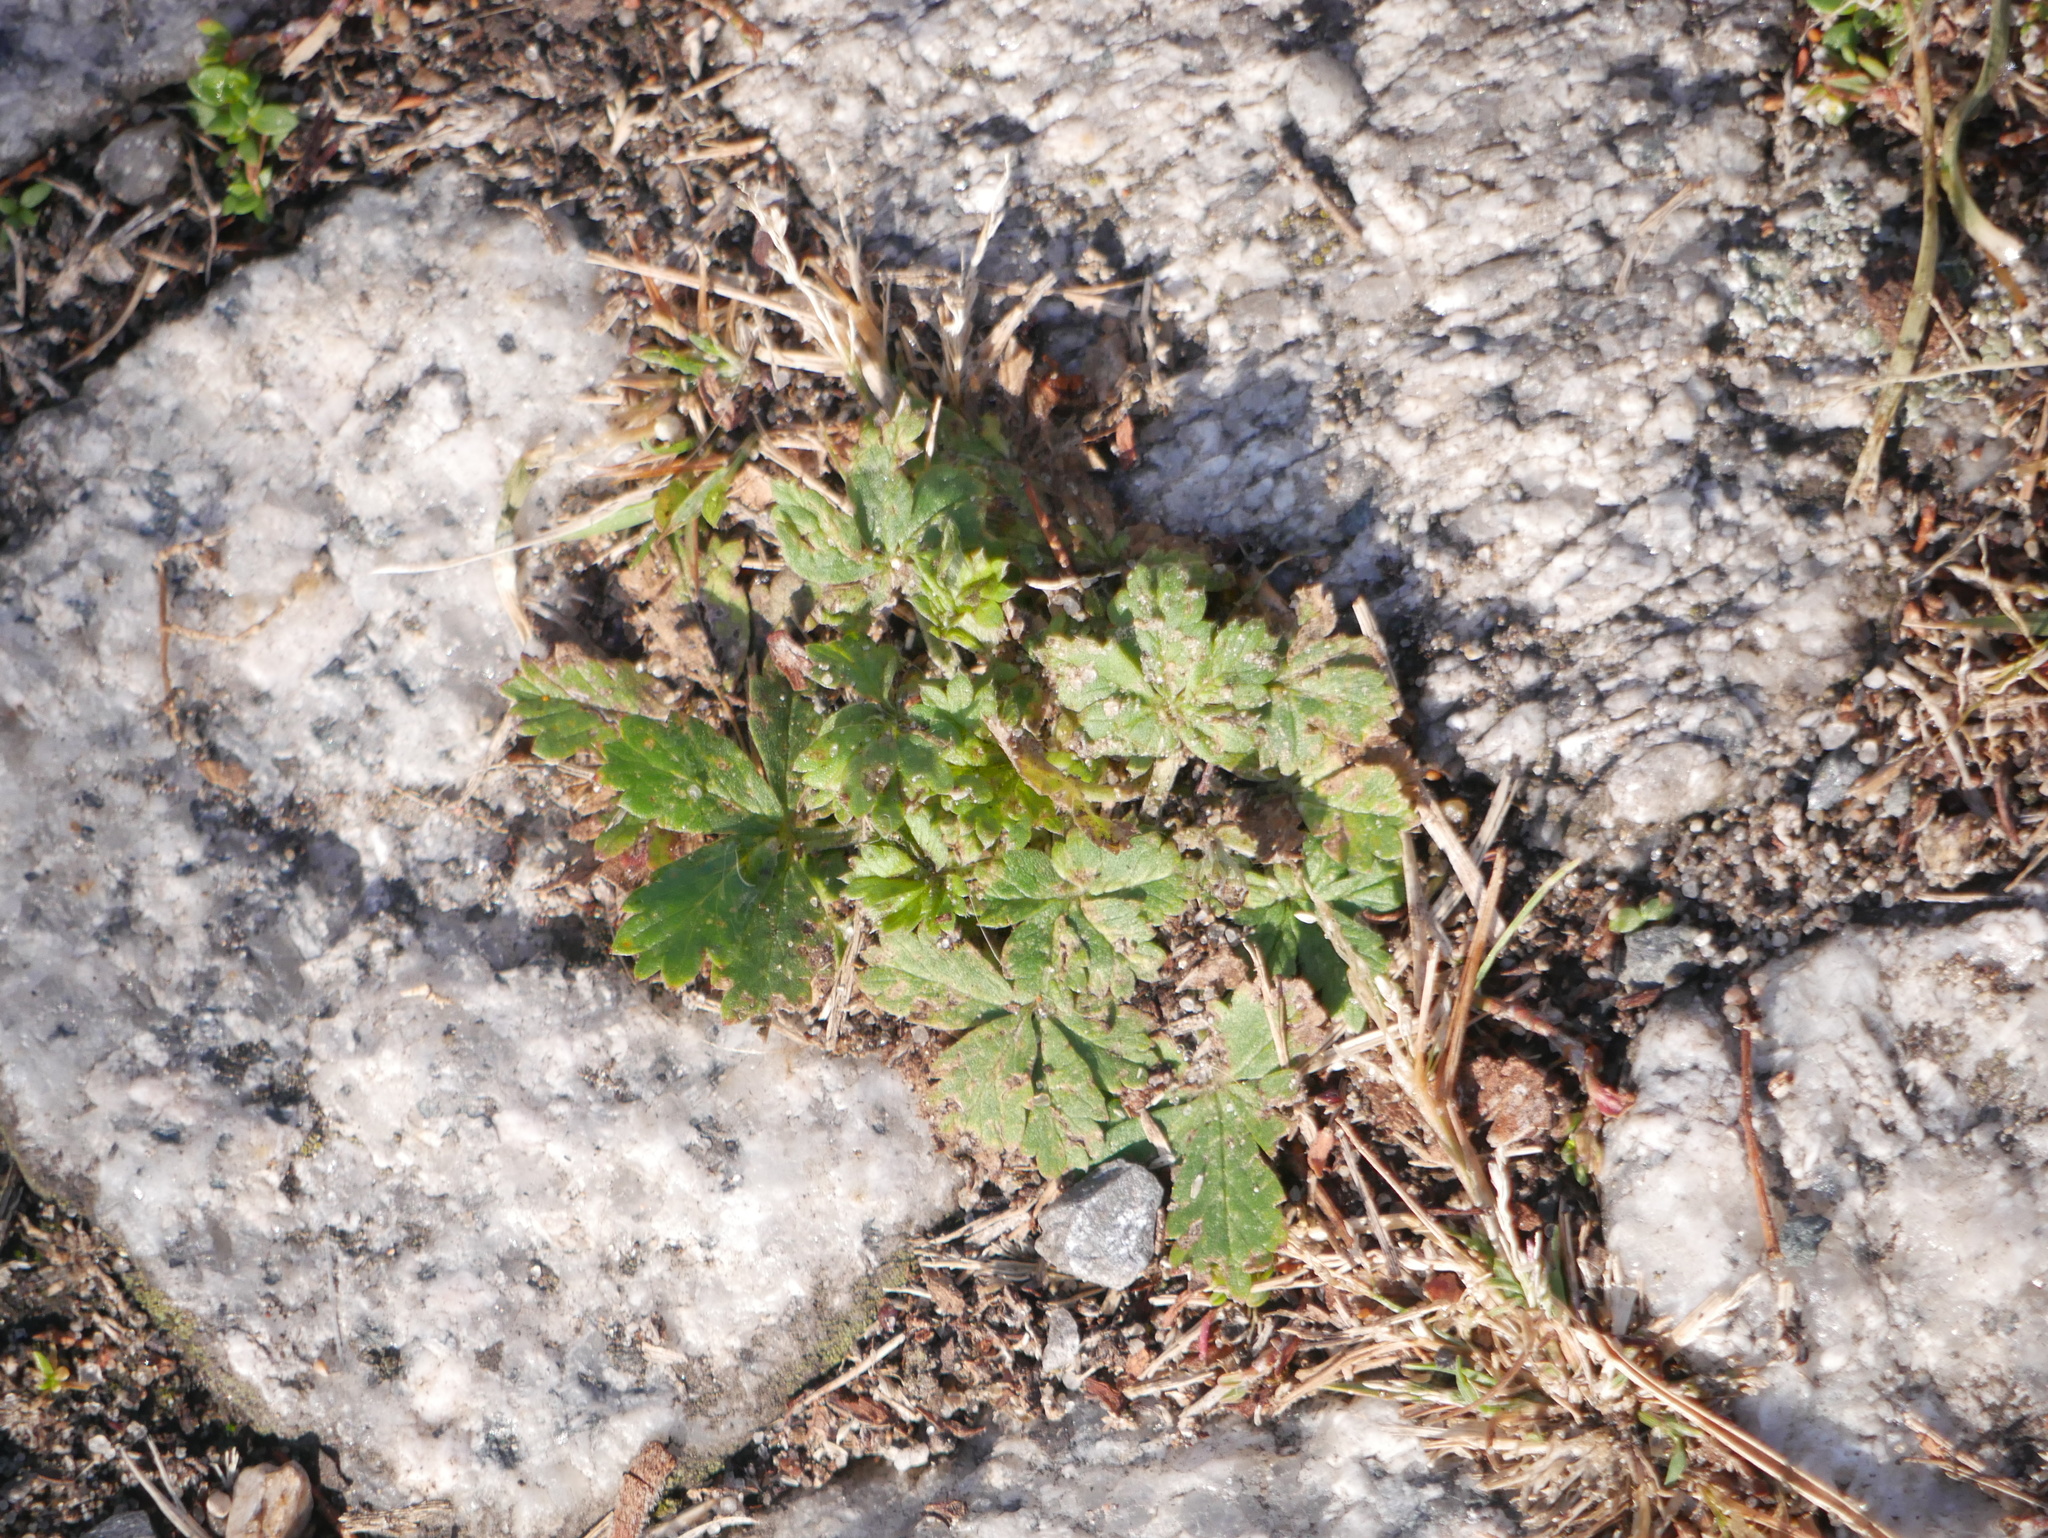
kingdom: Plantae
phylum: Tracheophyta
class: Magnoliopsida
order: Rosales
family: Rosaceae
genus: Potentilla
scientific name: Potentilla argentea
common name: Hoary cinquefoil
